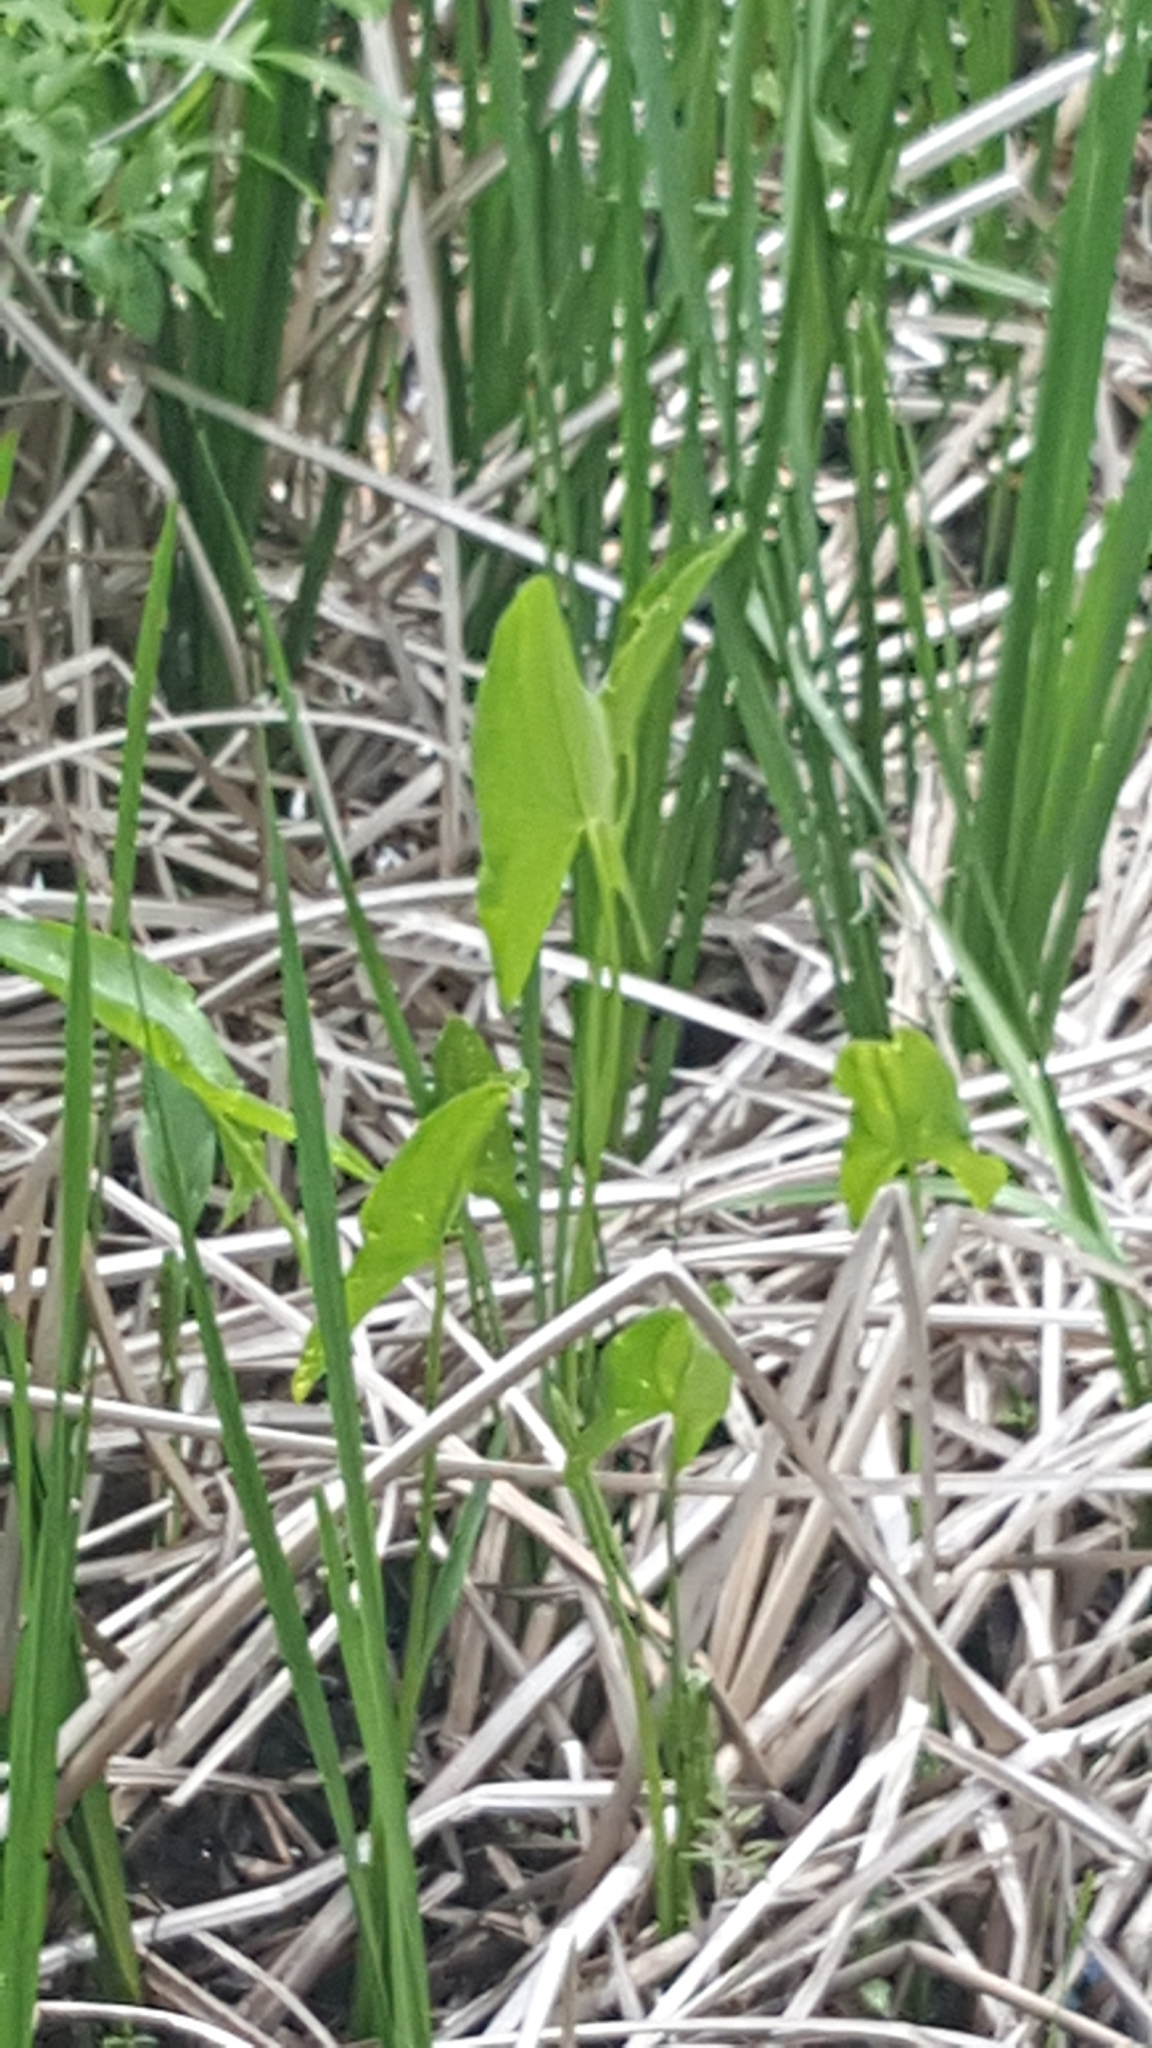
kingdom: Plantae
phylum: Tracheophyta
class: Liliopsida
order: Alismatales
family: Alismataceae
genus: Sagittaria
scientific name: Sagittaria latifolia
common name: Duck-potato
